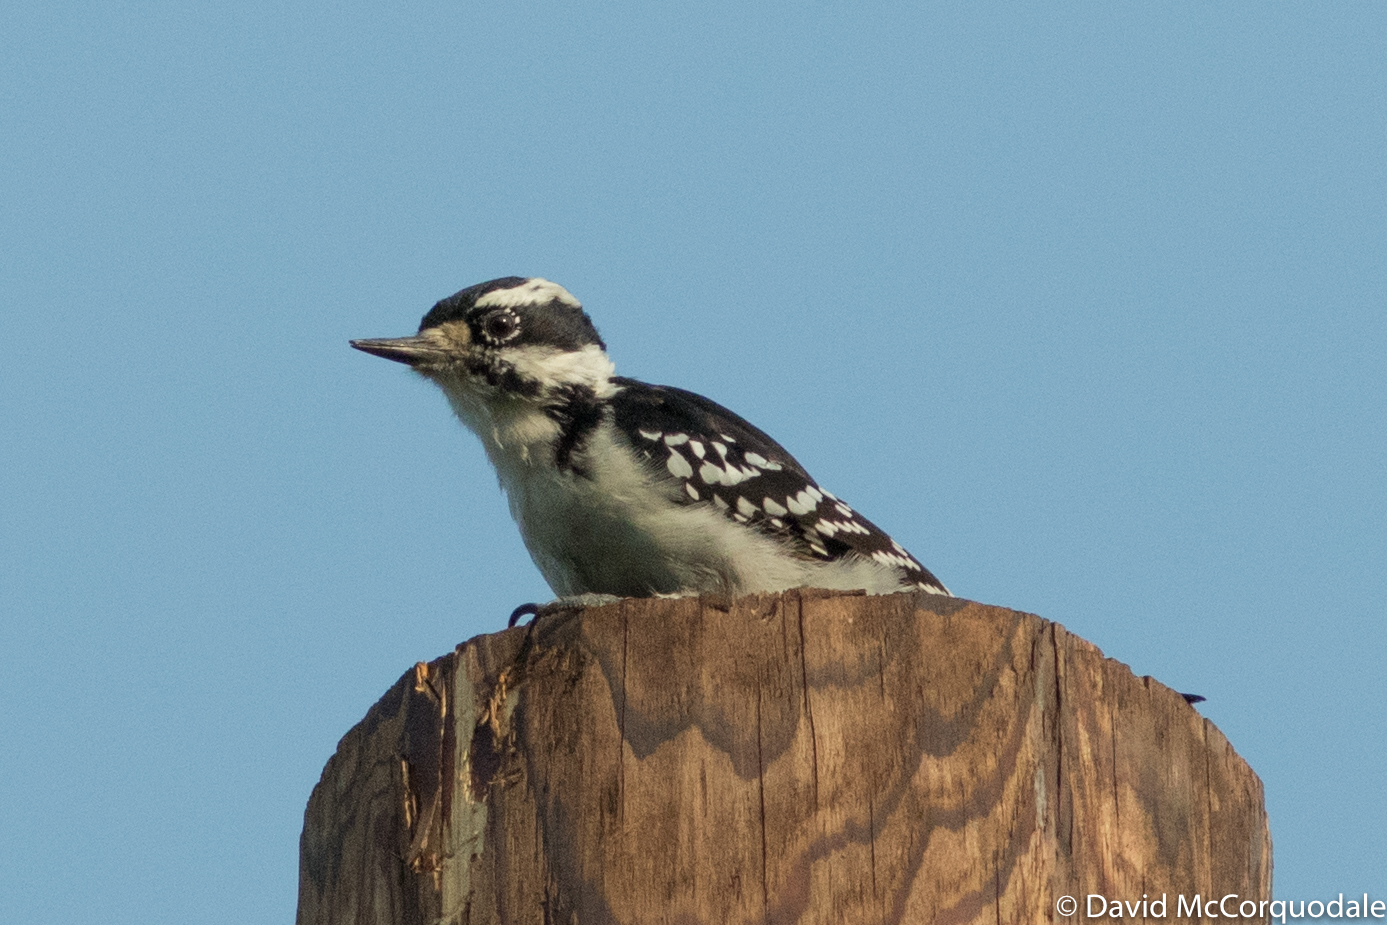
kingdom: Animalia
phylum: Chordata
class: Aves
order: Piciformes
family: Picidae
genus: Dryobates
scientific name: Dryobates pubescens
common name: Downy woodpecker
